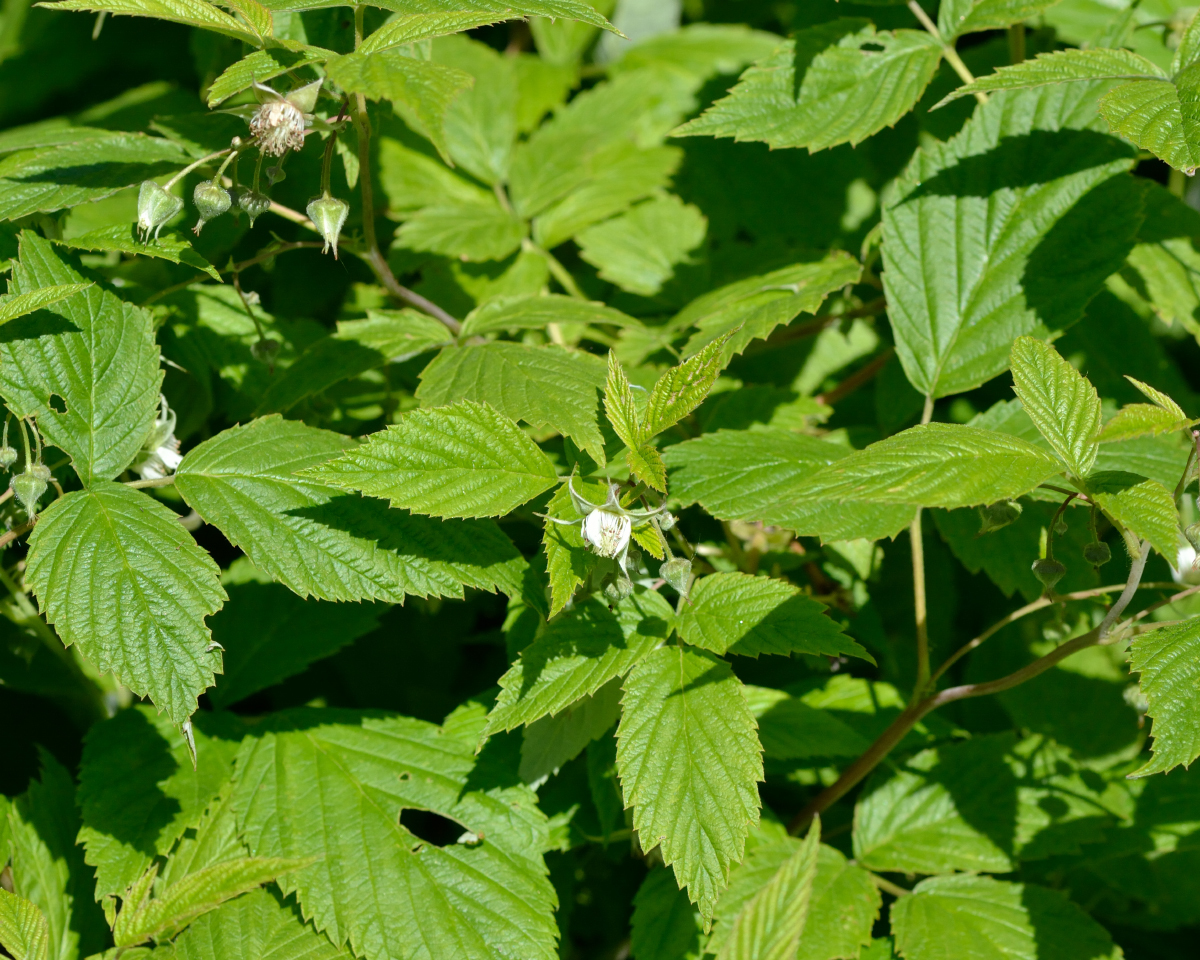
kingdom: Plantae
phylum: Tracheophyta
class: Magnoliopsida
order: Rosales
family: Rosaceae
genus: Rubus
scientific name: Rubus idaeus
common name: Raspberry
